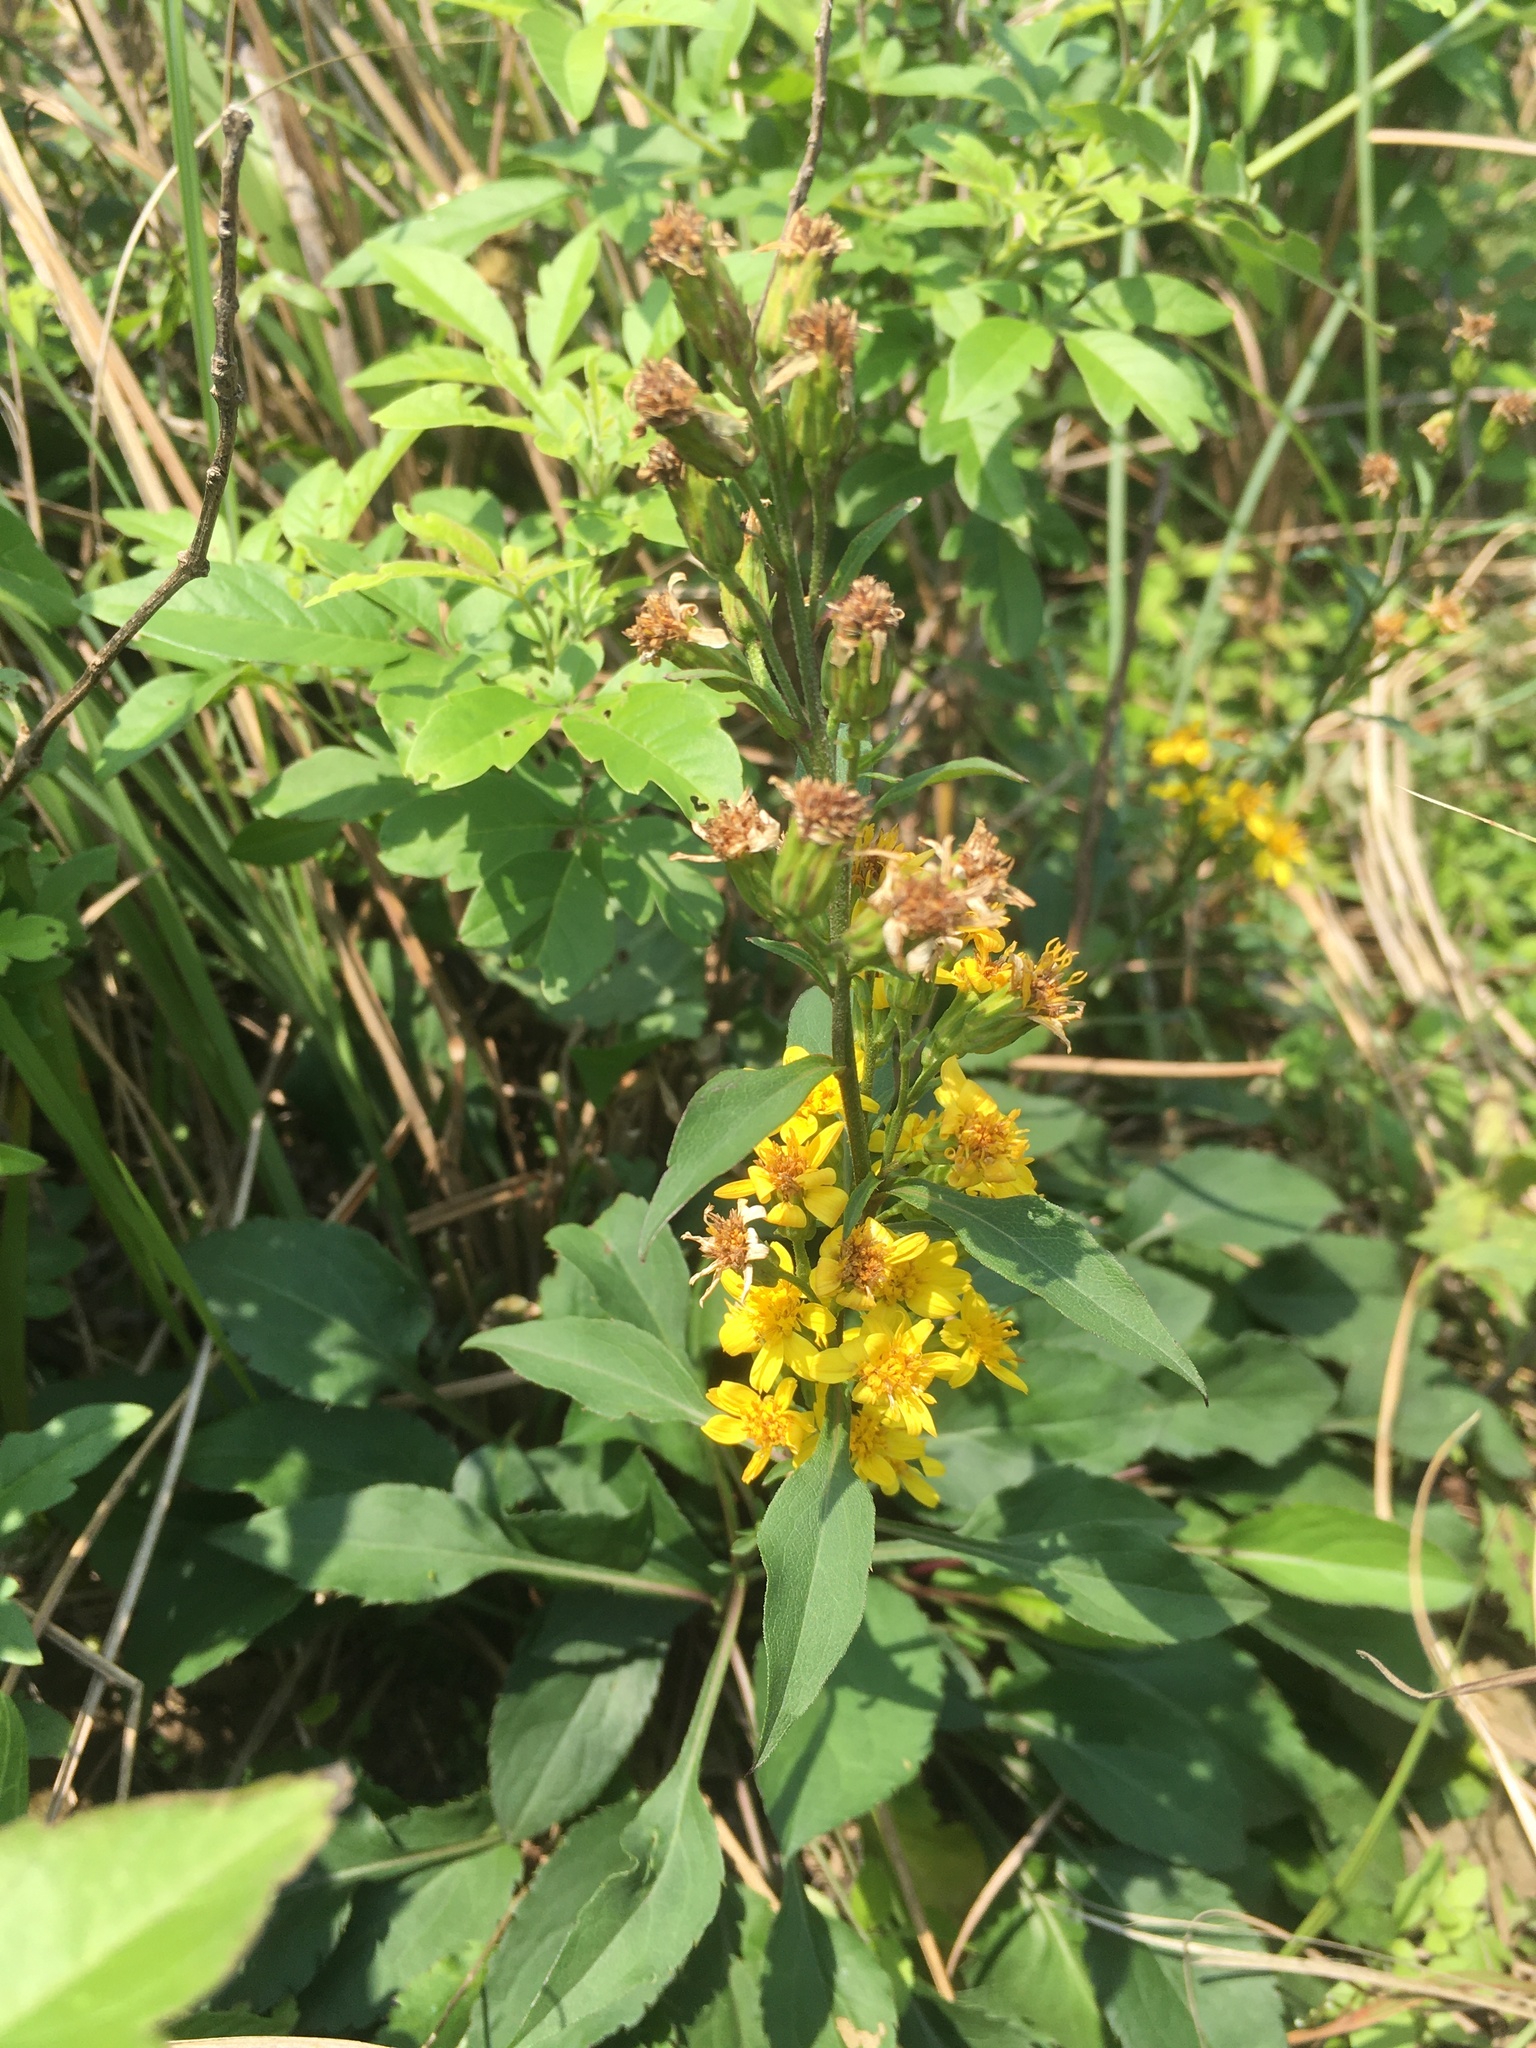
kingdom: Plantae
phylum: Tracheophyta
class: Magnoliopsida
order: Asterales
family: Asteraceae
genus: Solidago
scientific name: Solidago decurrens
